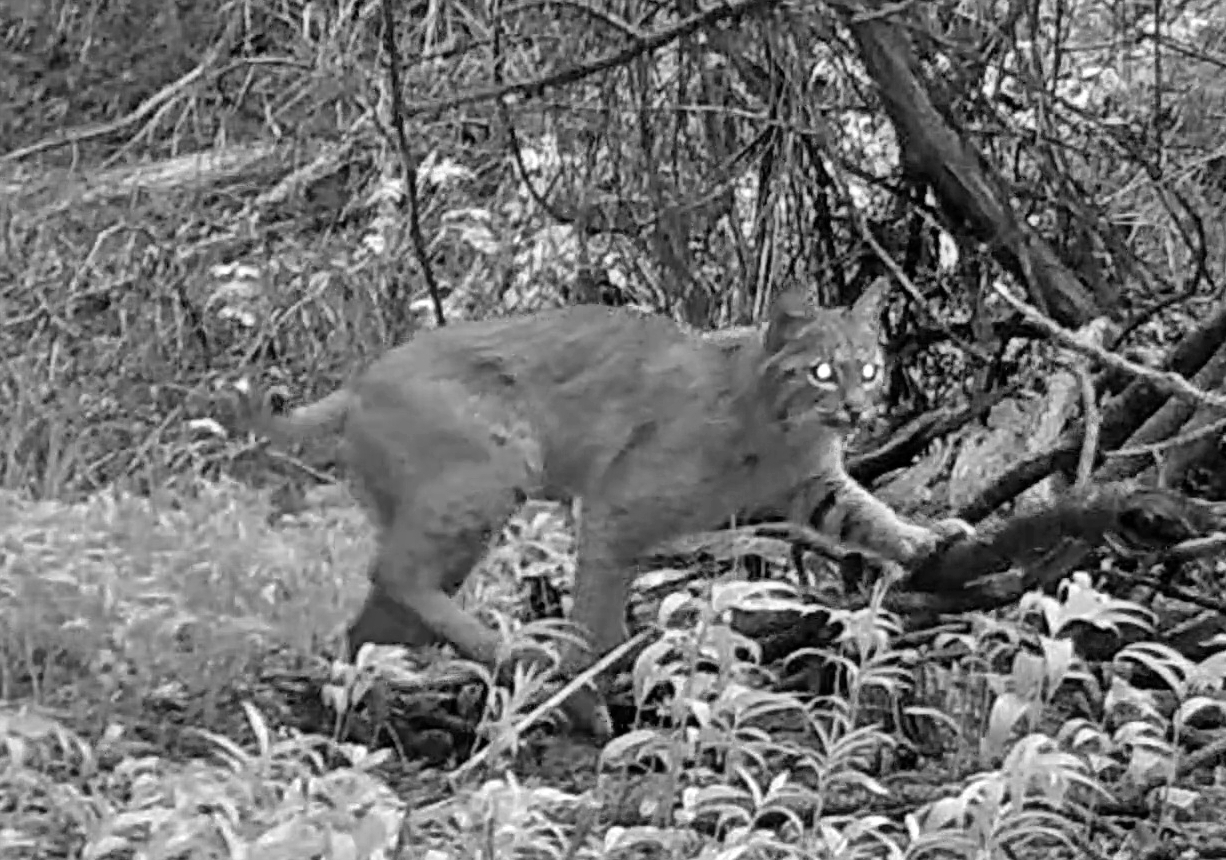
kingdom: Animalia
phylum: Chordata
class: Mammalia
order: Carnivora
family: Felidae
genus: Lynx
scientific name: Lynx rufus
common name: Bobcat
